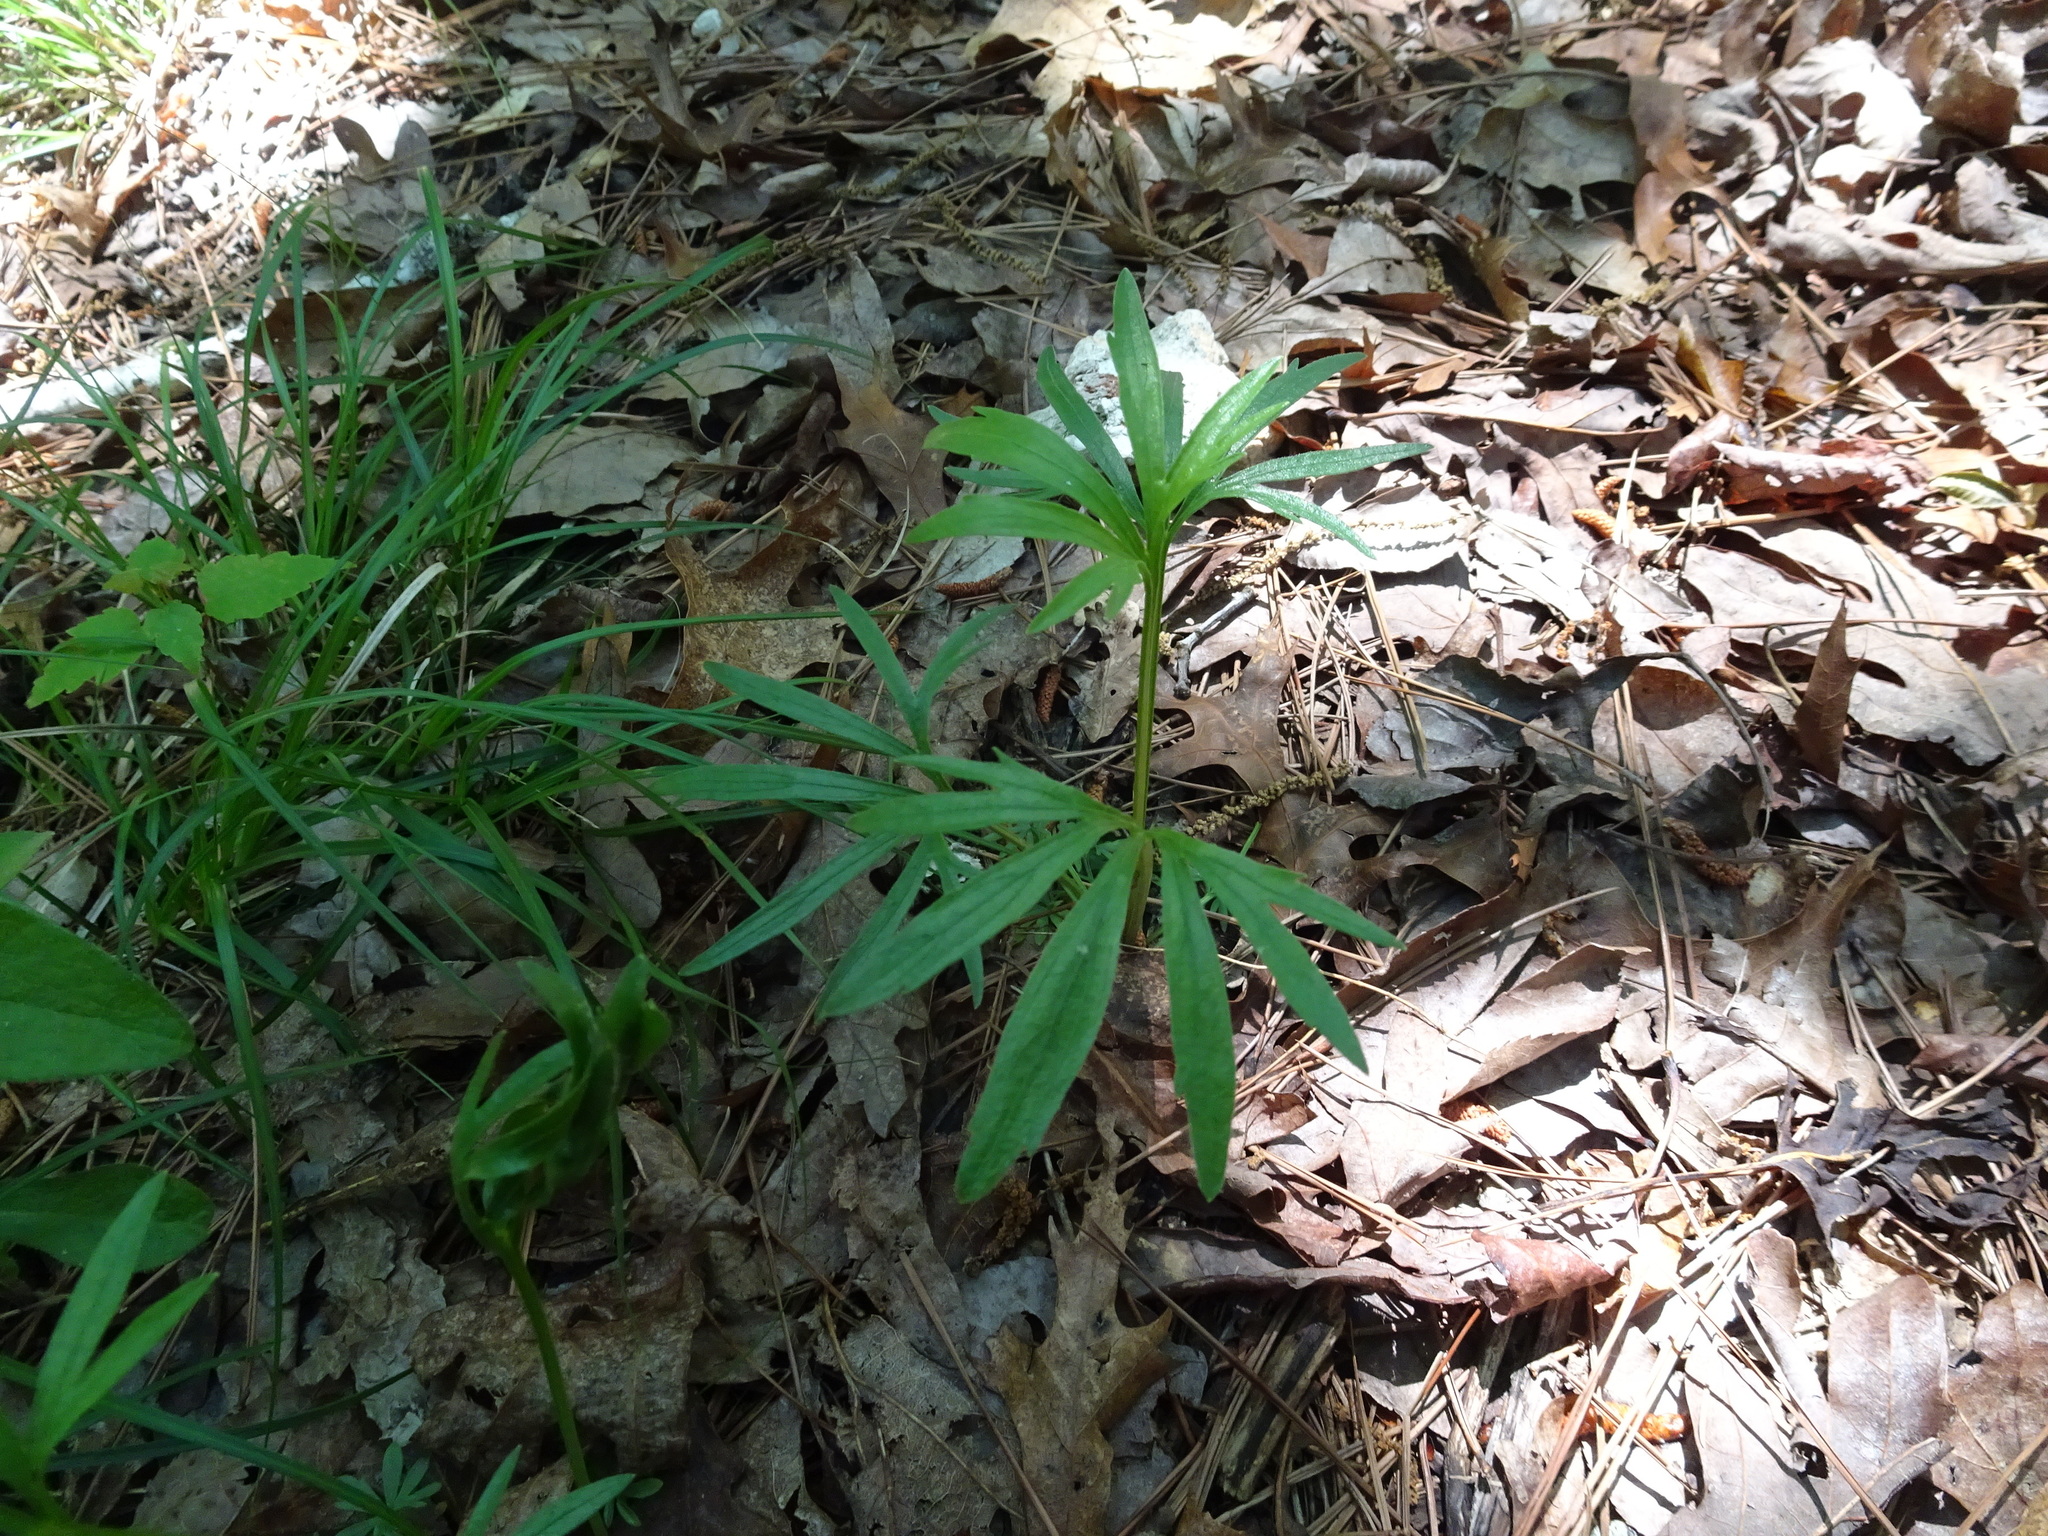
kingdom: Plantae
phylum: Tracheophyta
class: Magnoliopsida
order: Malpighiales
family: Violaceae
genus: Viola
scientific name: Viola pedata
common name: Pansy violet
